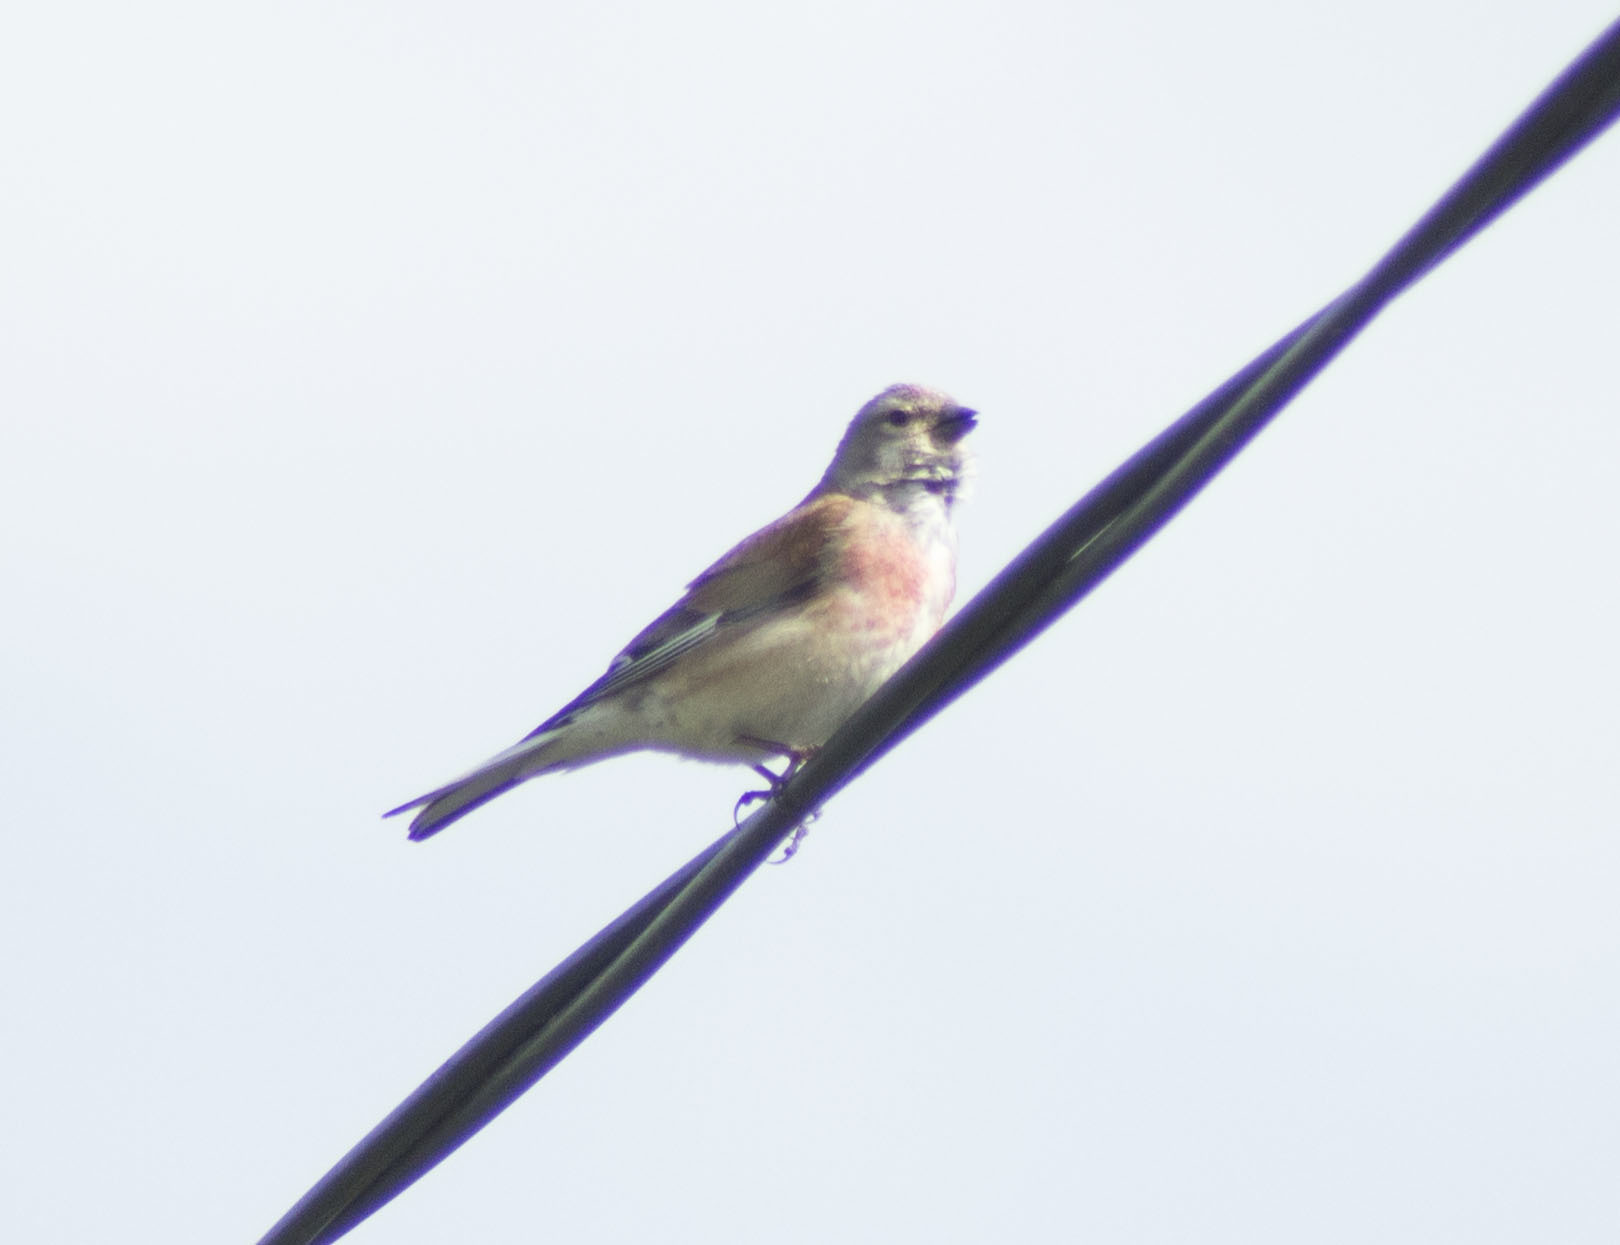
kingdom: Animalia
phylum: Chordata
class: Aves
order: Passeriformes
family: Fringillidae
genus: Linaria
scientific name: Linaria cannabina
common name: Common linnet
